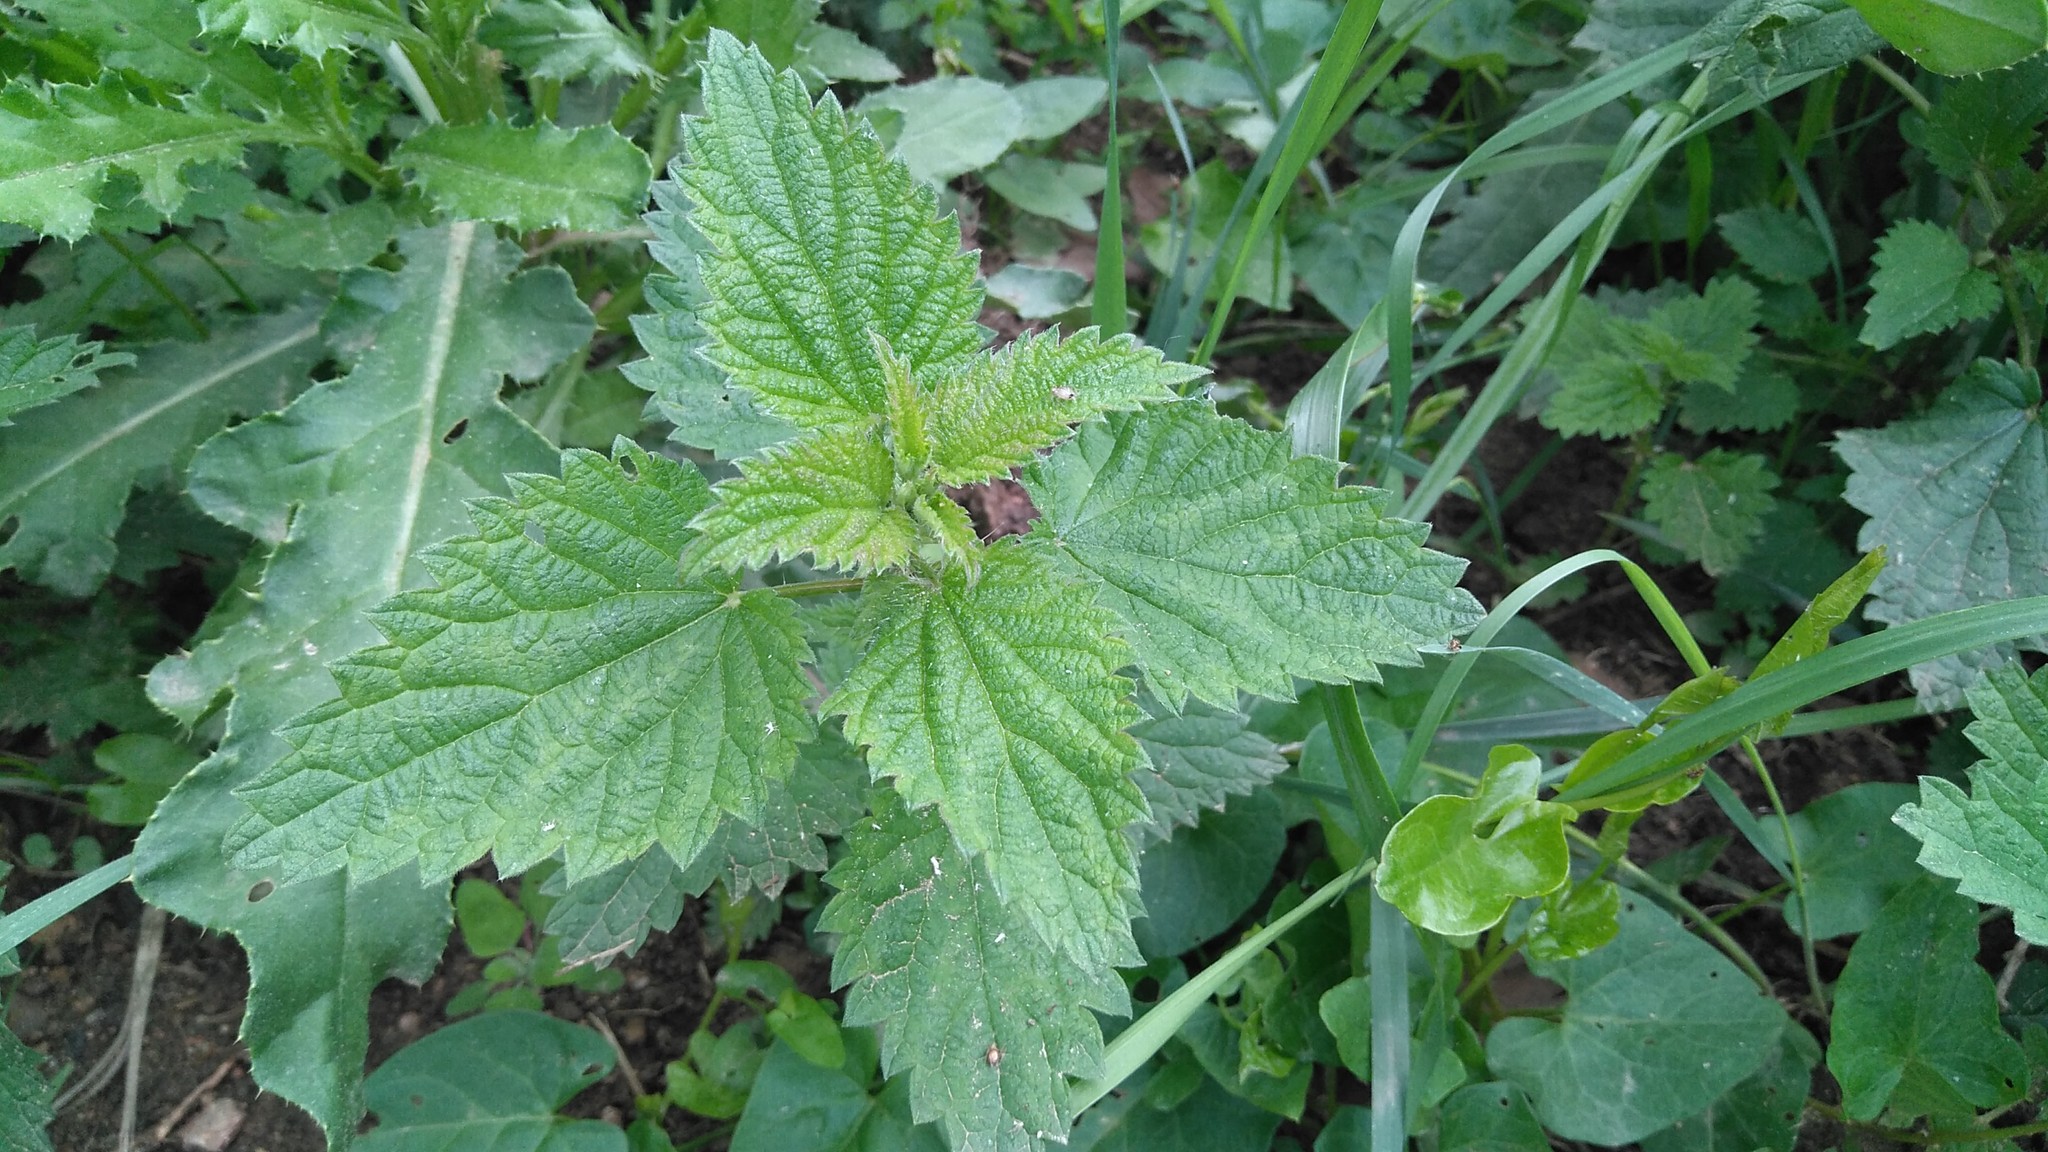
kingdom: Plantae
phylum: Tracheophyta
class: Magnoliopsida
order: Rosales
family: Urticaceae
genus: Urtica
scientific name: Urtica dioica
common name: Common nettle
